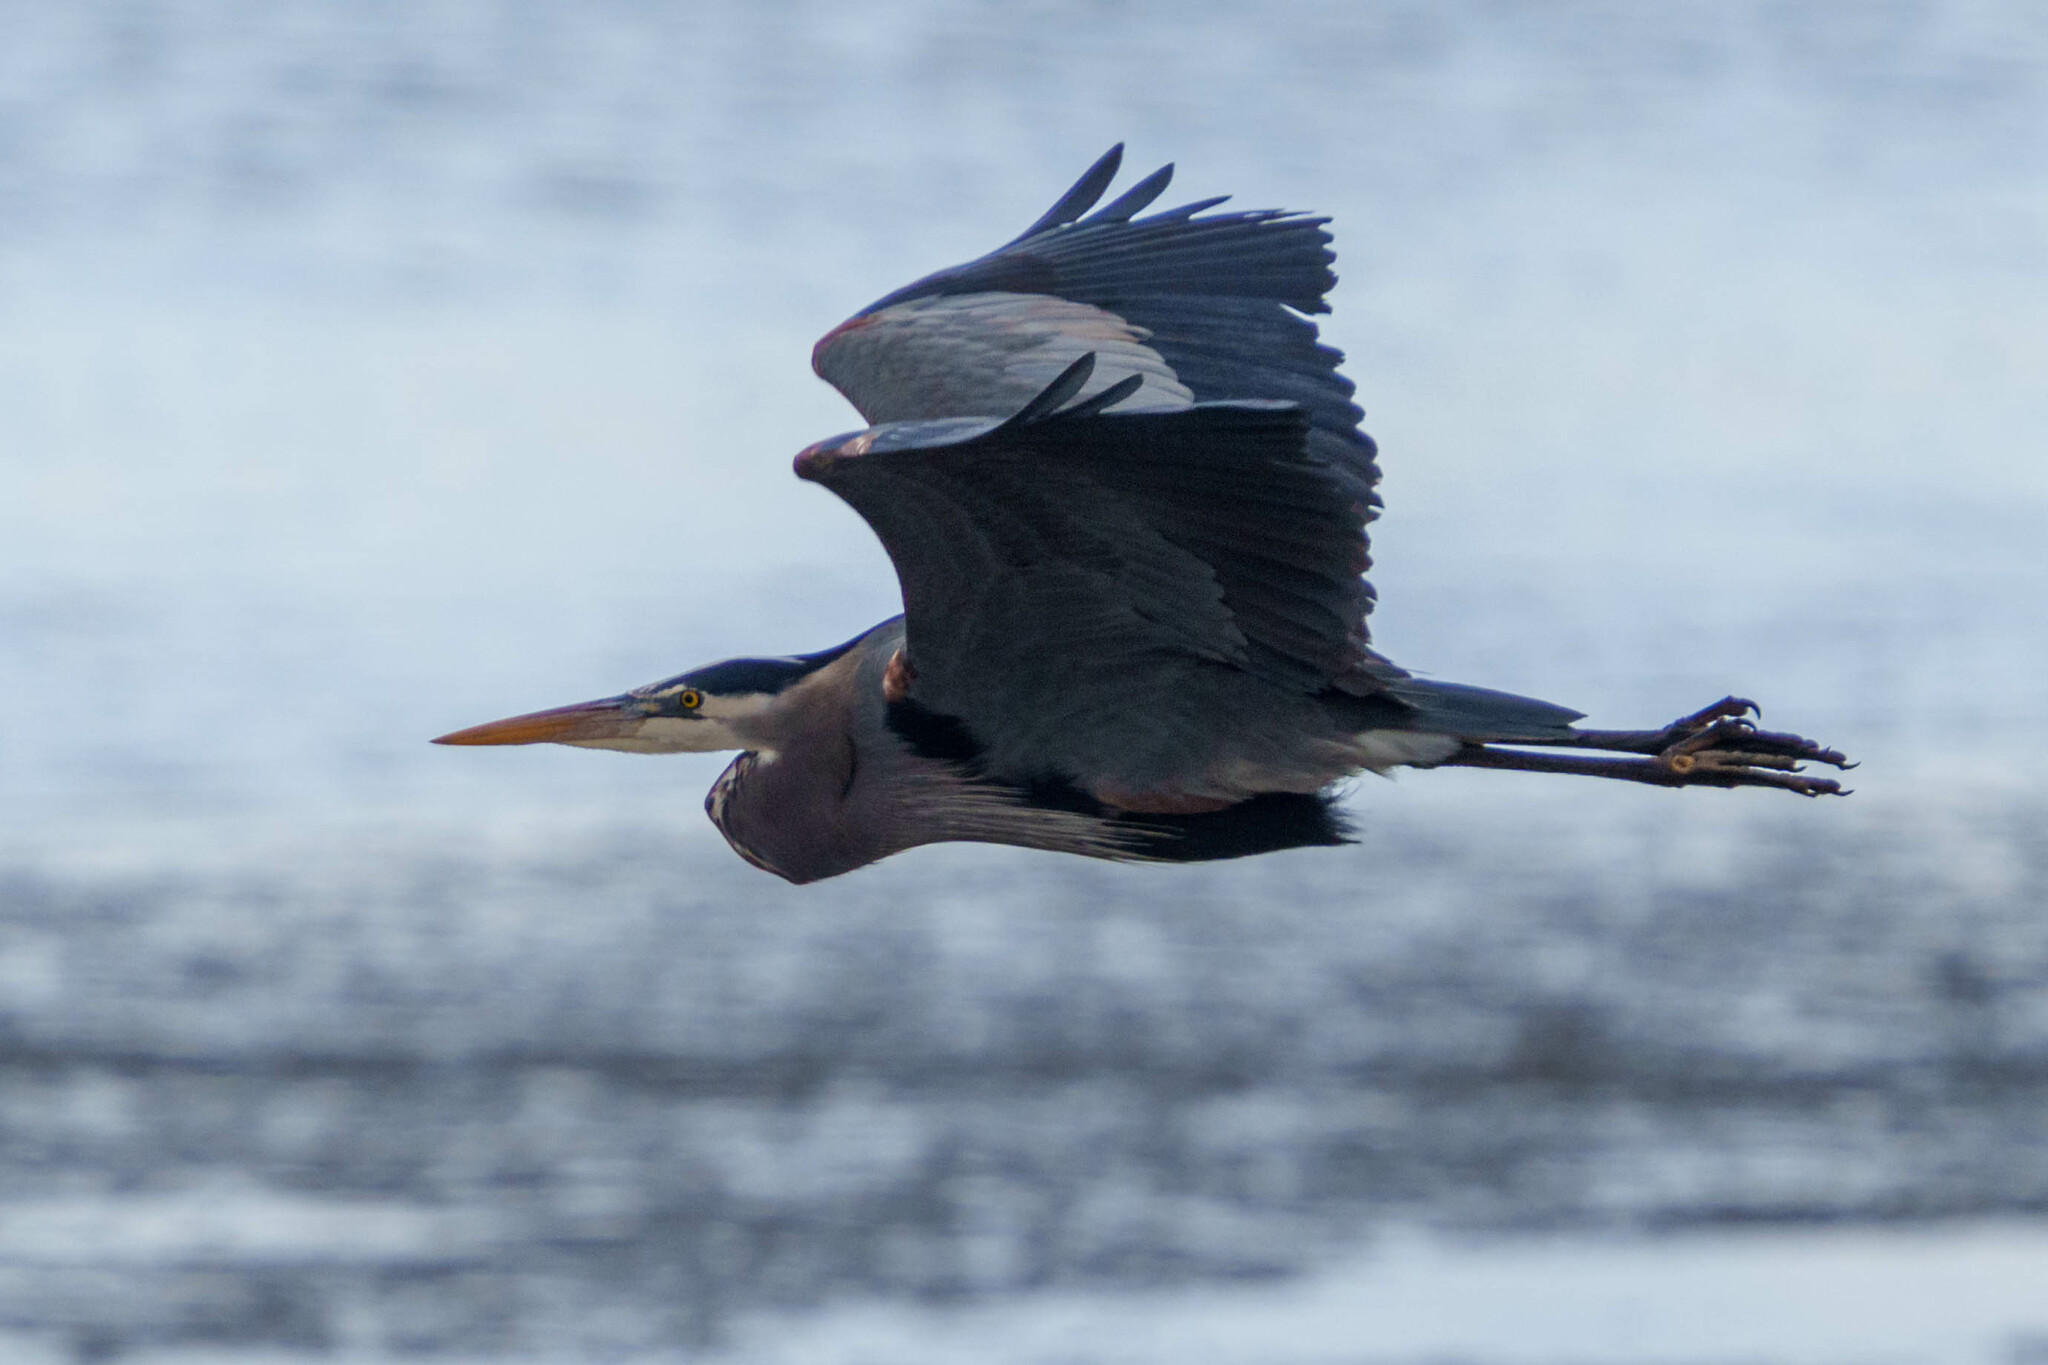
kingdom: Animalia
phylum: Chordata
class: Aves
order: Pelecaniformes
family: Ardeidae
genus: Ardea
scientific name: Ardea herodias
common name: Great blue heron
